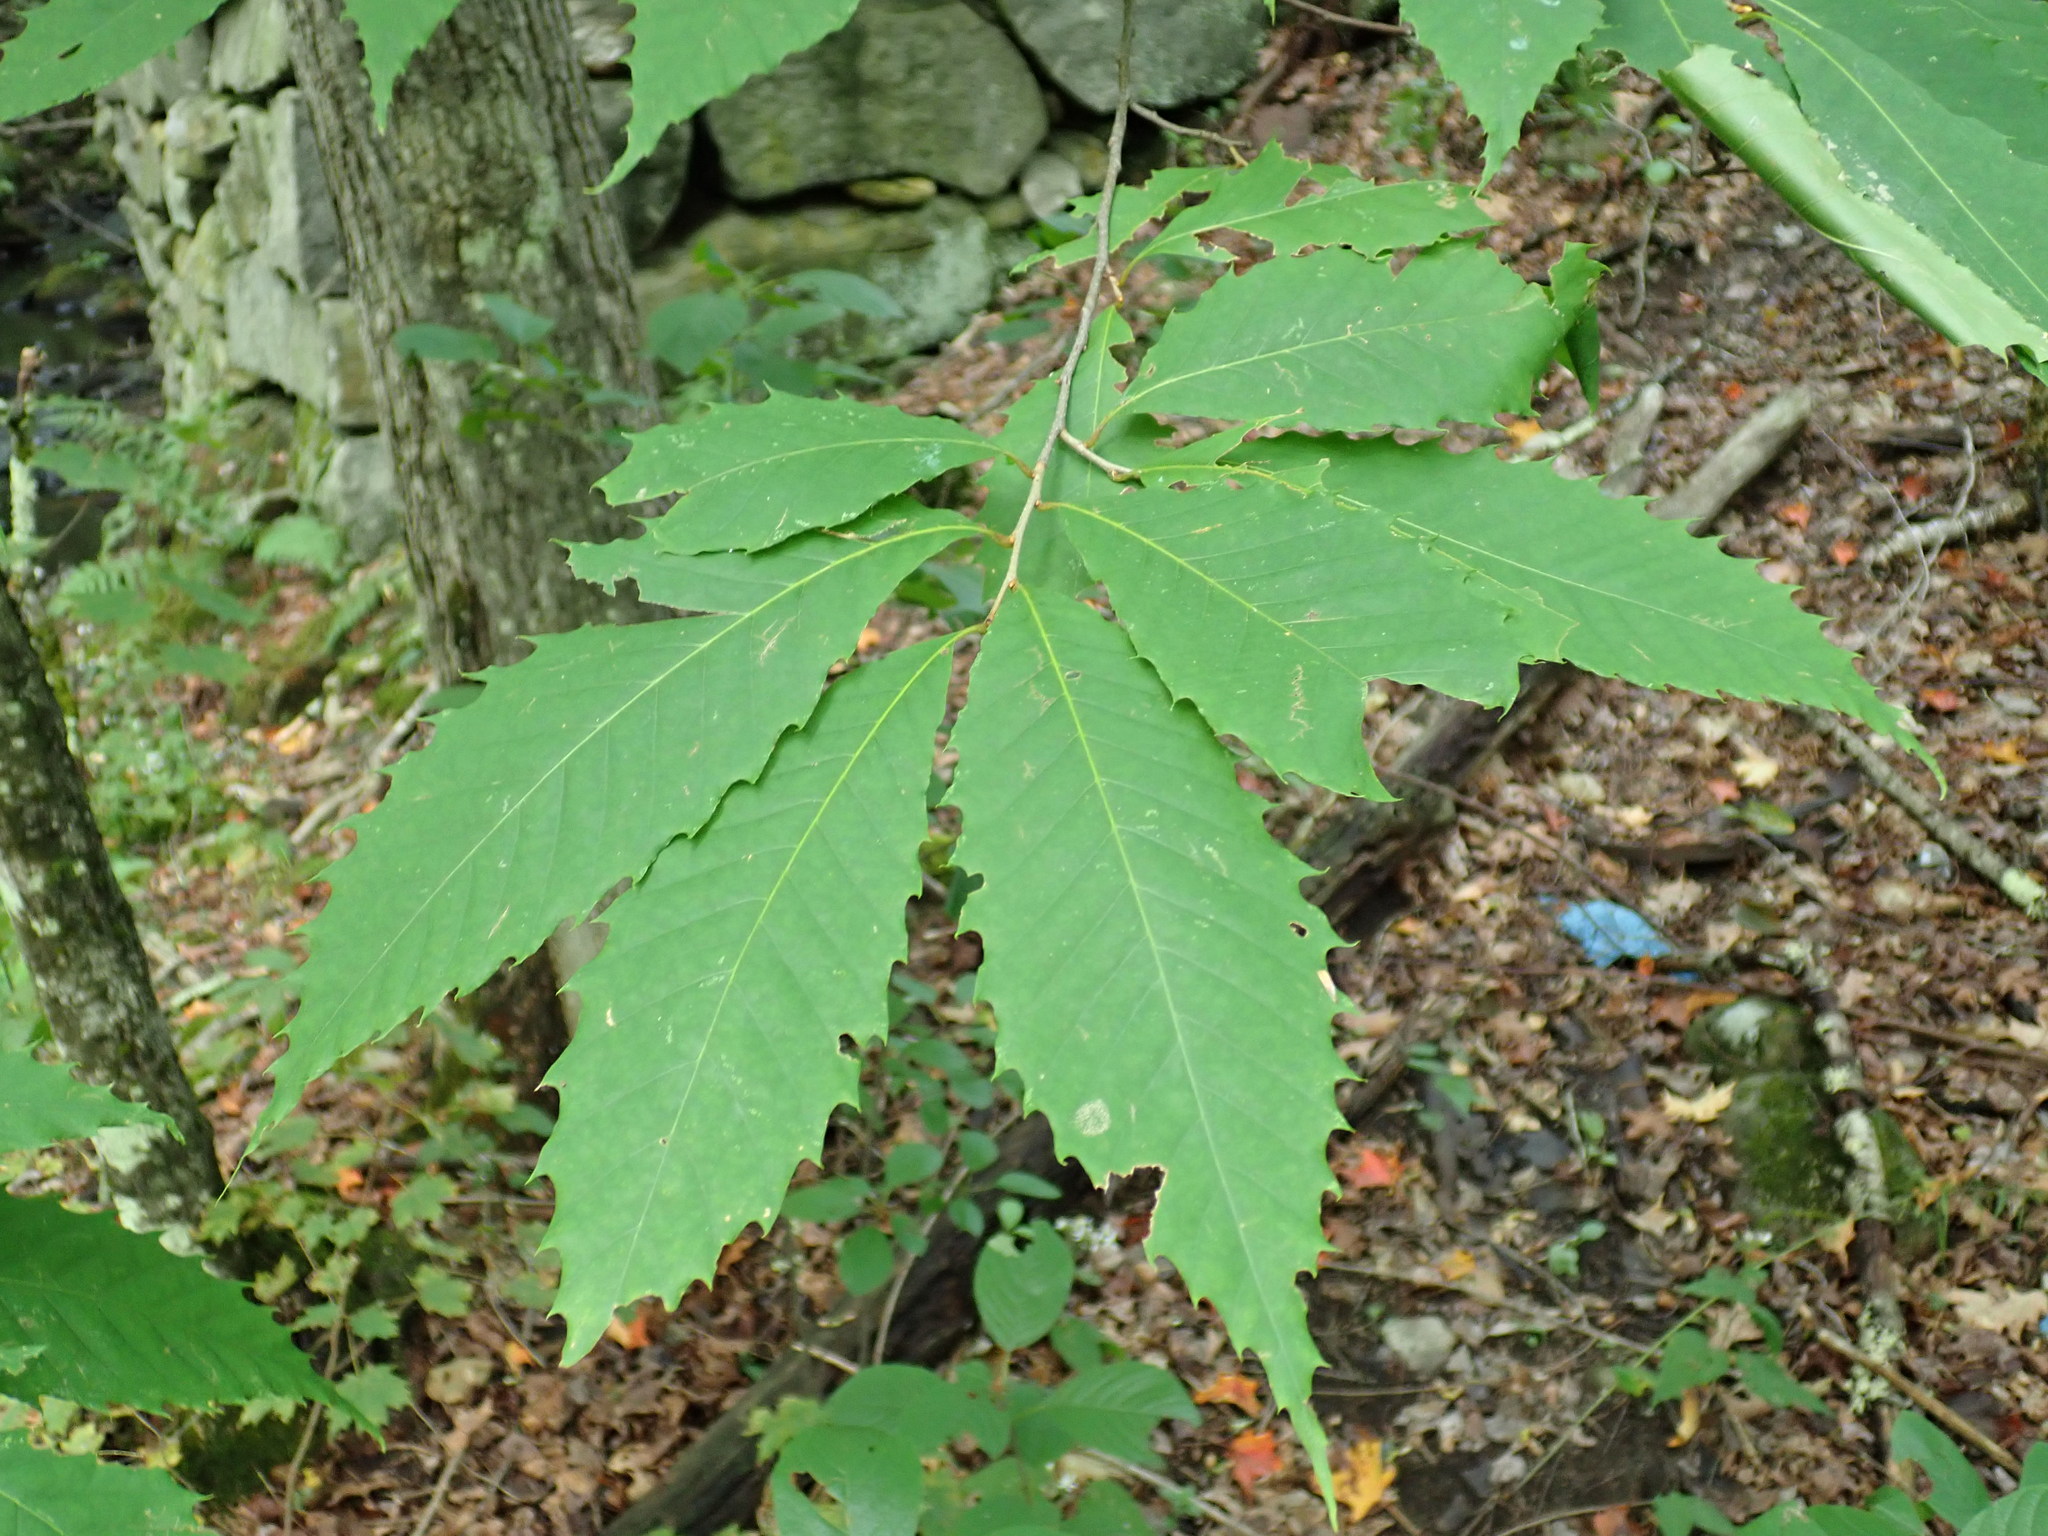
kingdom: Plantae
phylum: Tracheophyta
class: Magnoliopsida
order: Fagales
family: Fagaceae
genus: Castanea
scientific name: Castanea dentata
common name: American chestnut
